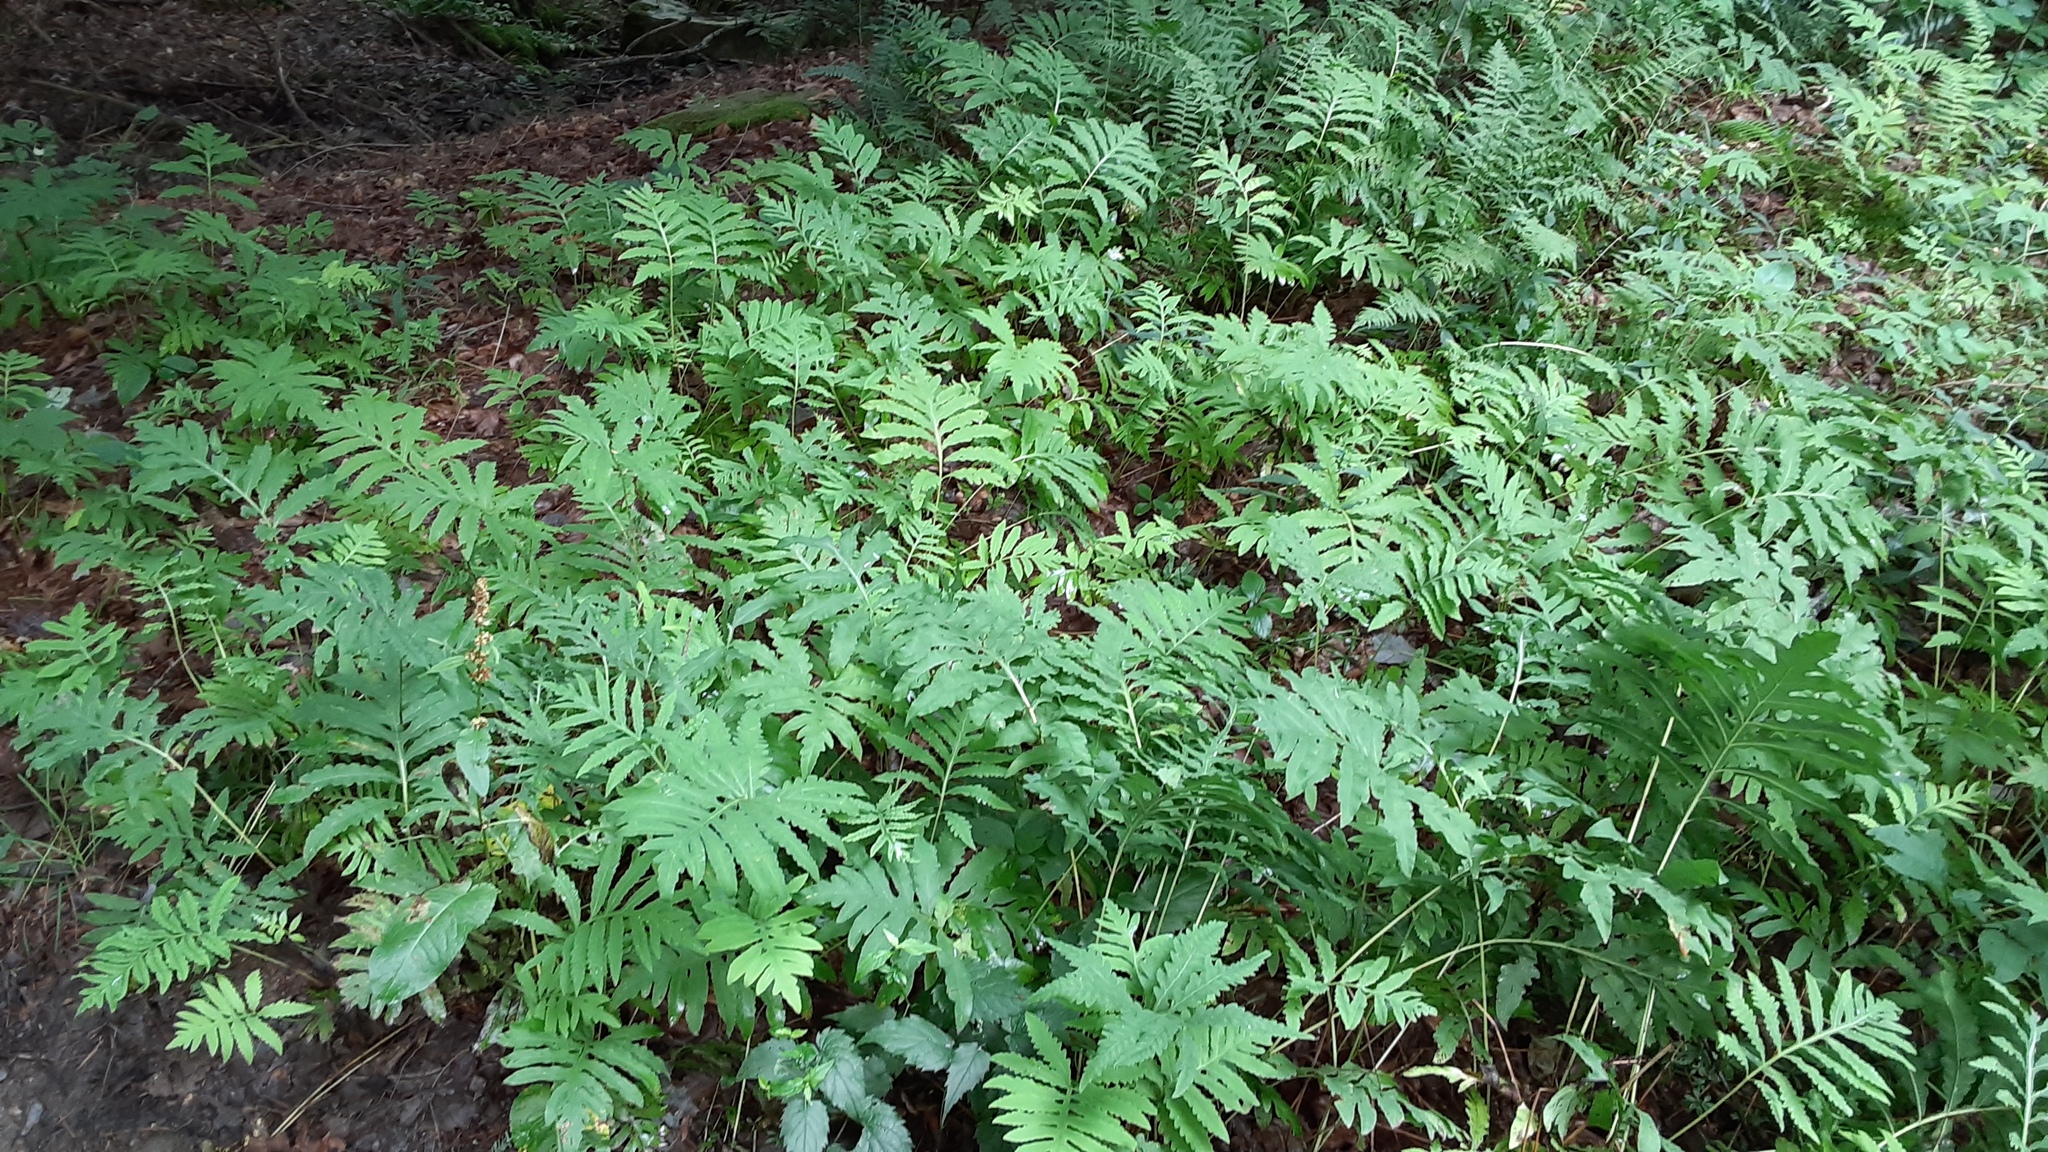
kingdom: Plantae
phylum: Tracheophyta
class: Polypodiopsida
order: Polypodiales
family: Onocleaceae
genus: Onoclea
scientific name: Onoclea sensibilis
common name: Sensitive fern
